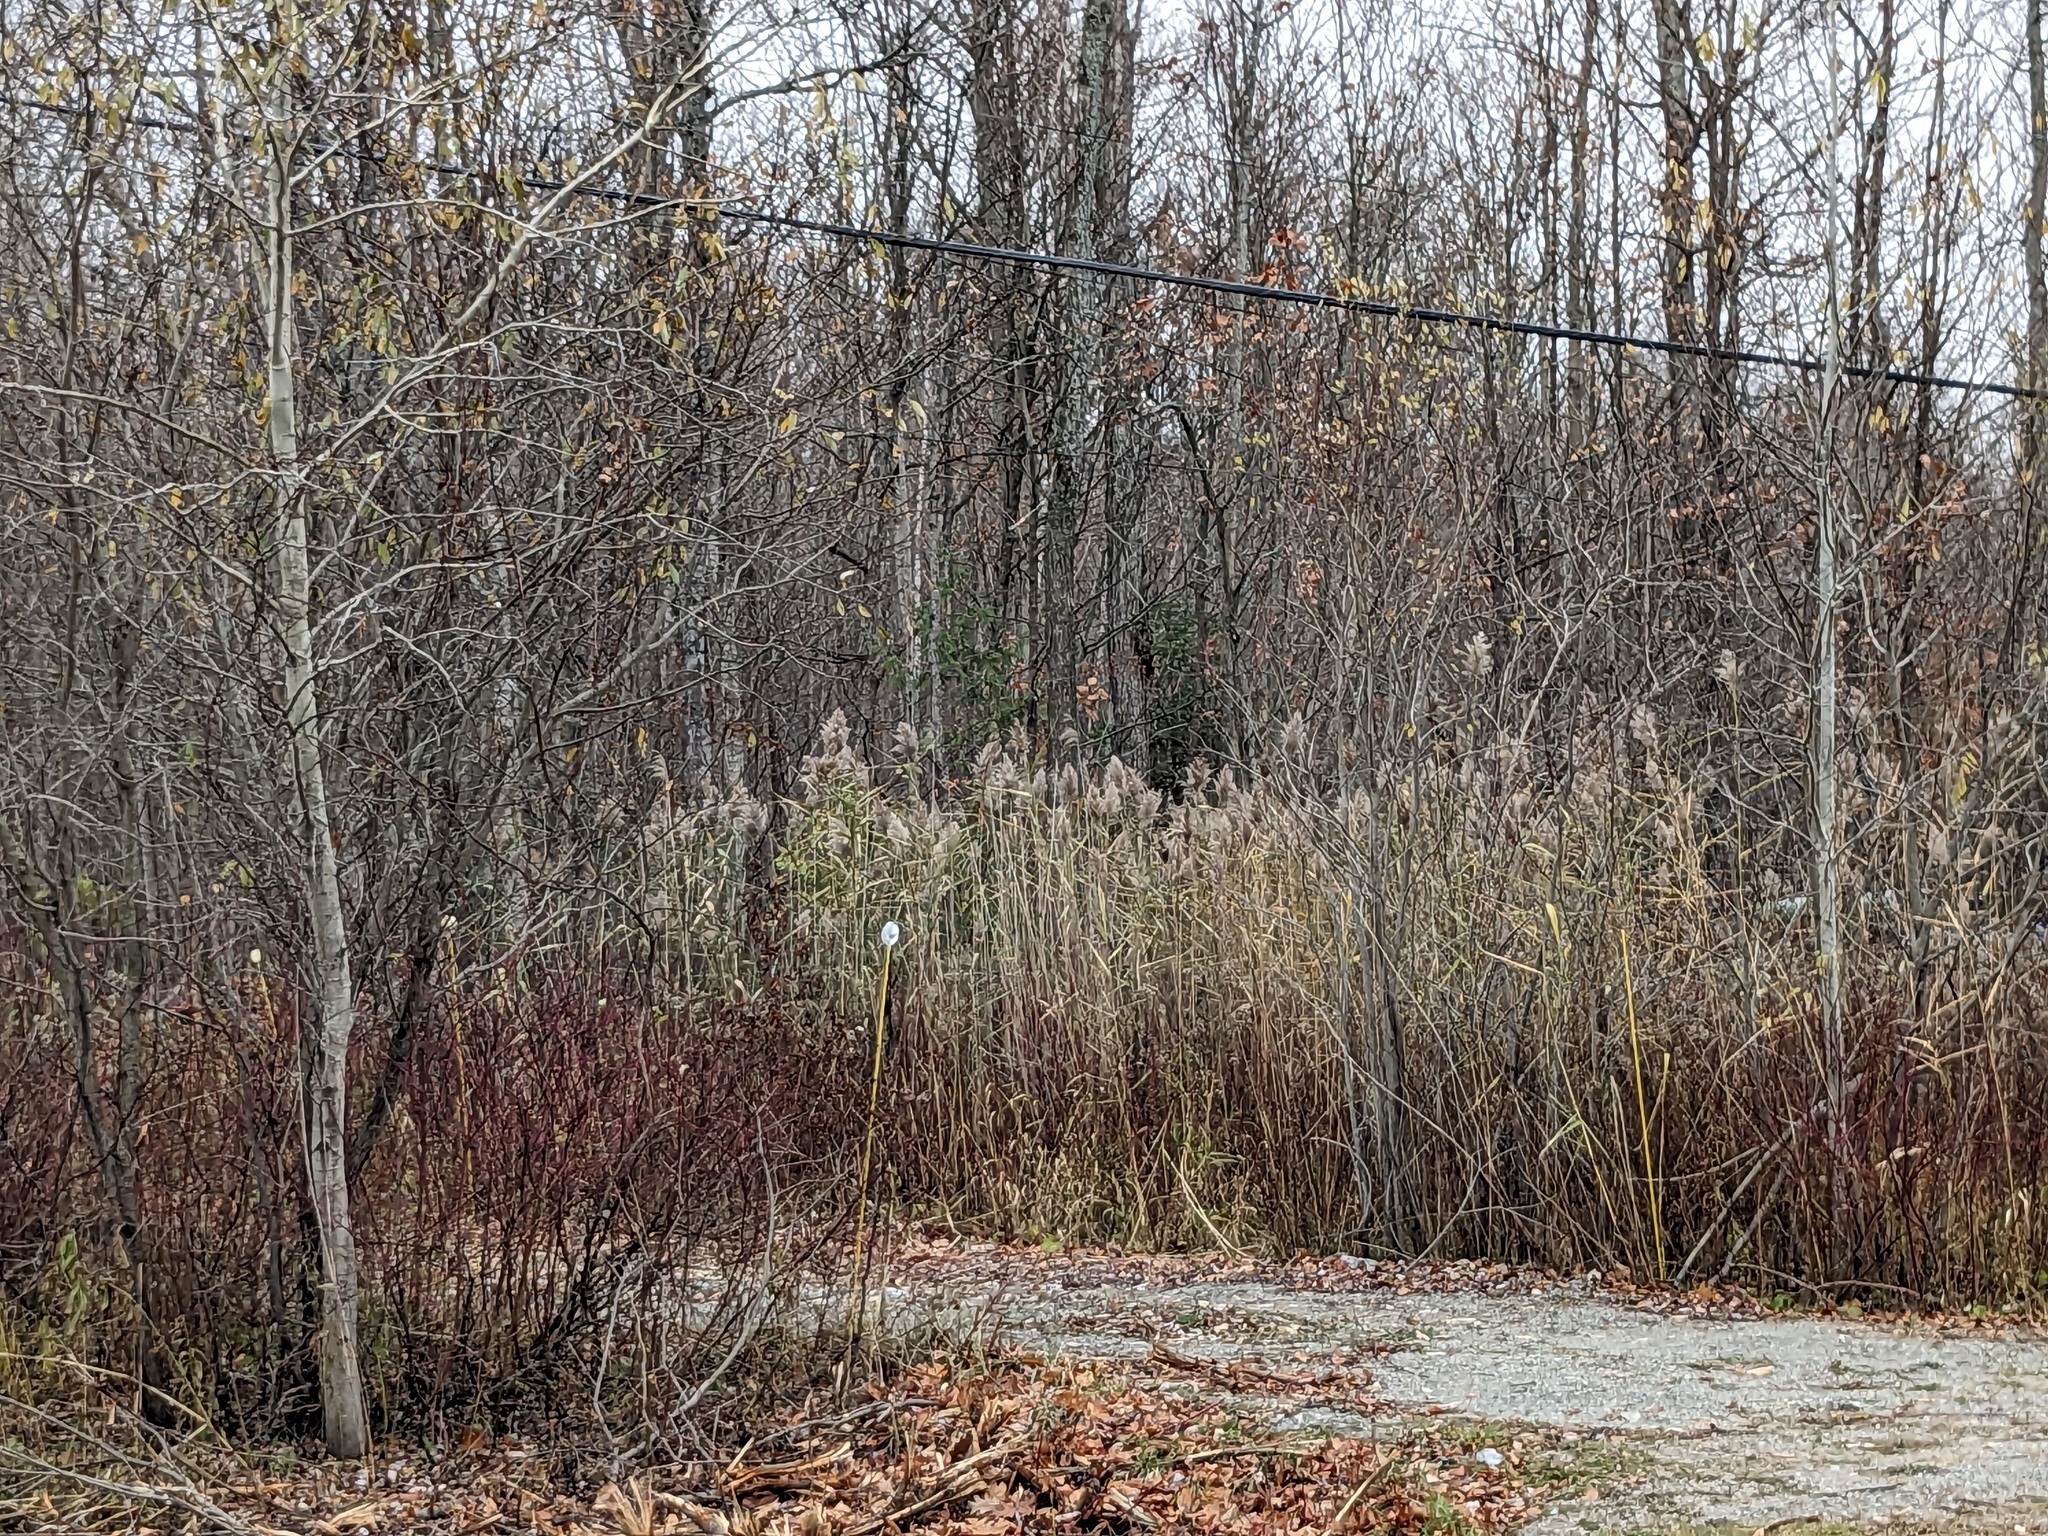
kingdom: Plantae
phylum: Tracheophyta
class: Liliopsida
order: Poales
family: Poaceae
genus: Phragmites
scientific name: Phragmites australis
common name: Common reed
